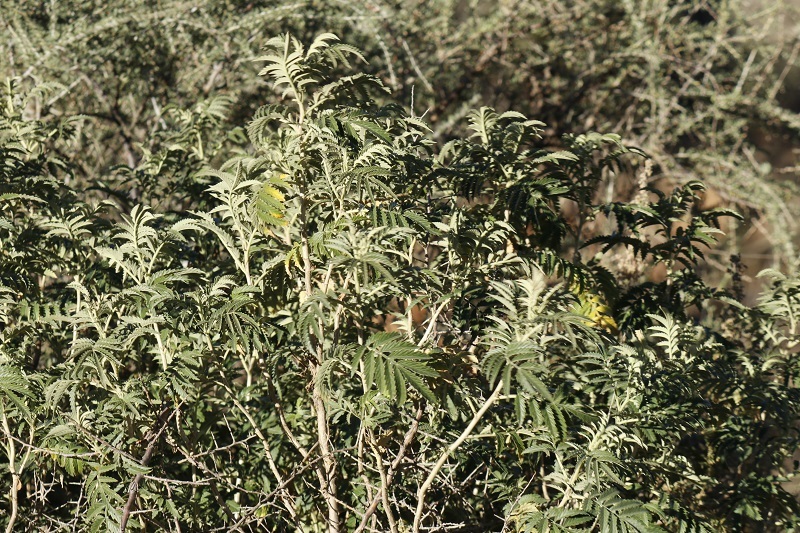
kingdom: Plantae
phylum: Tracheophyta
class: Magnoliopsida
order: Geraniales
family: Melianthaceae
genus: Melianthus
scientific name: Melianthus comosus
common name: Touch-me-not
